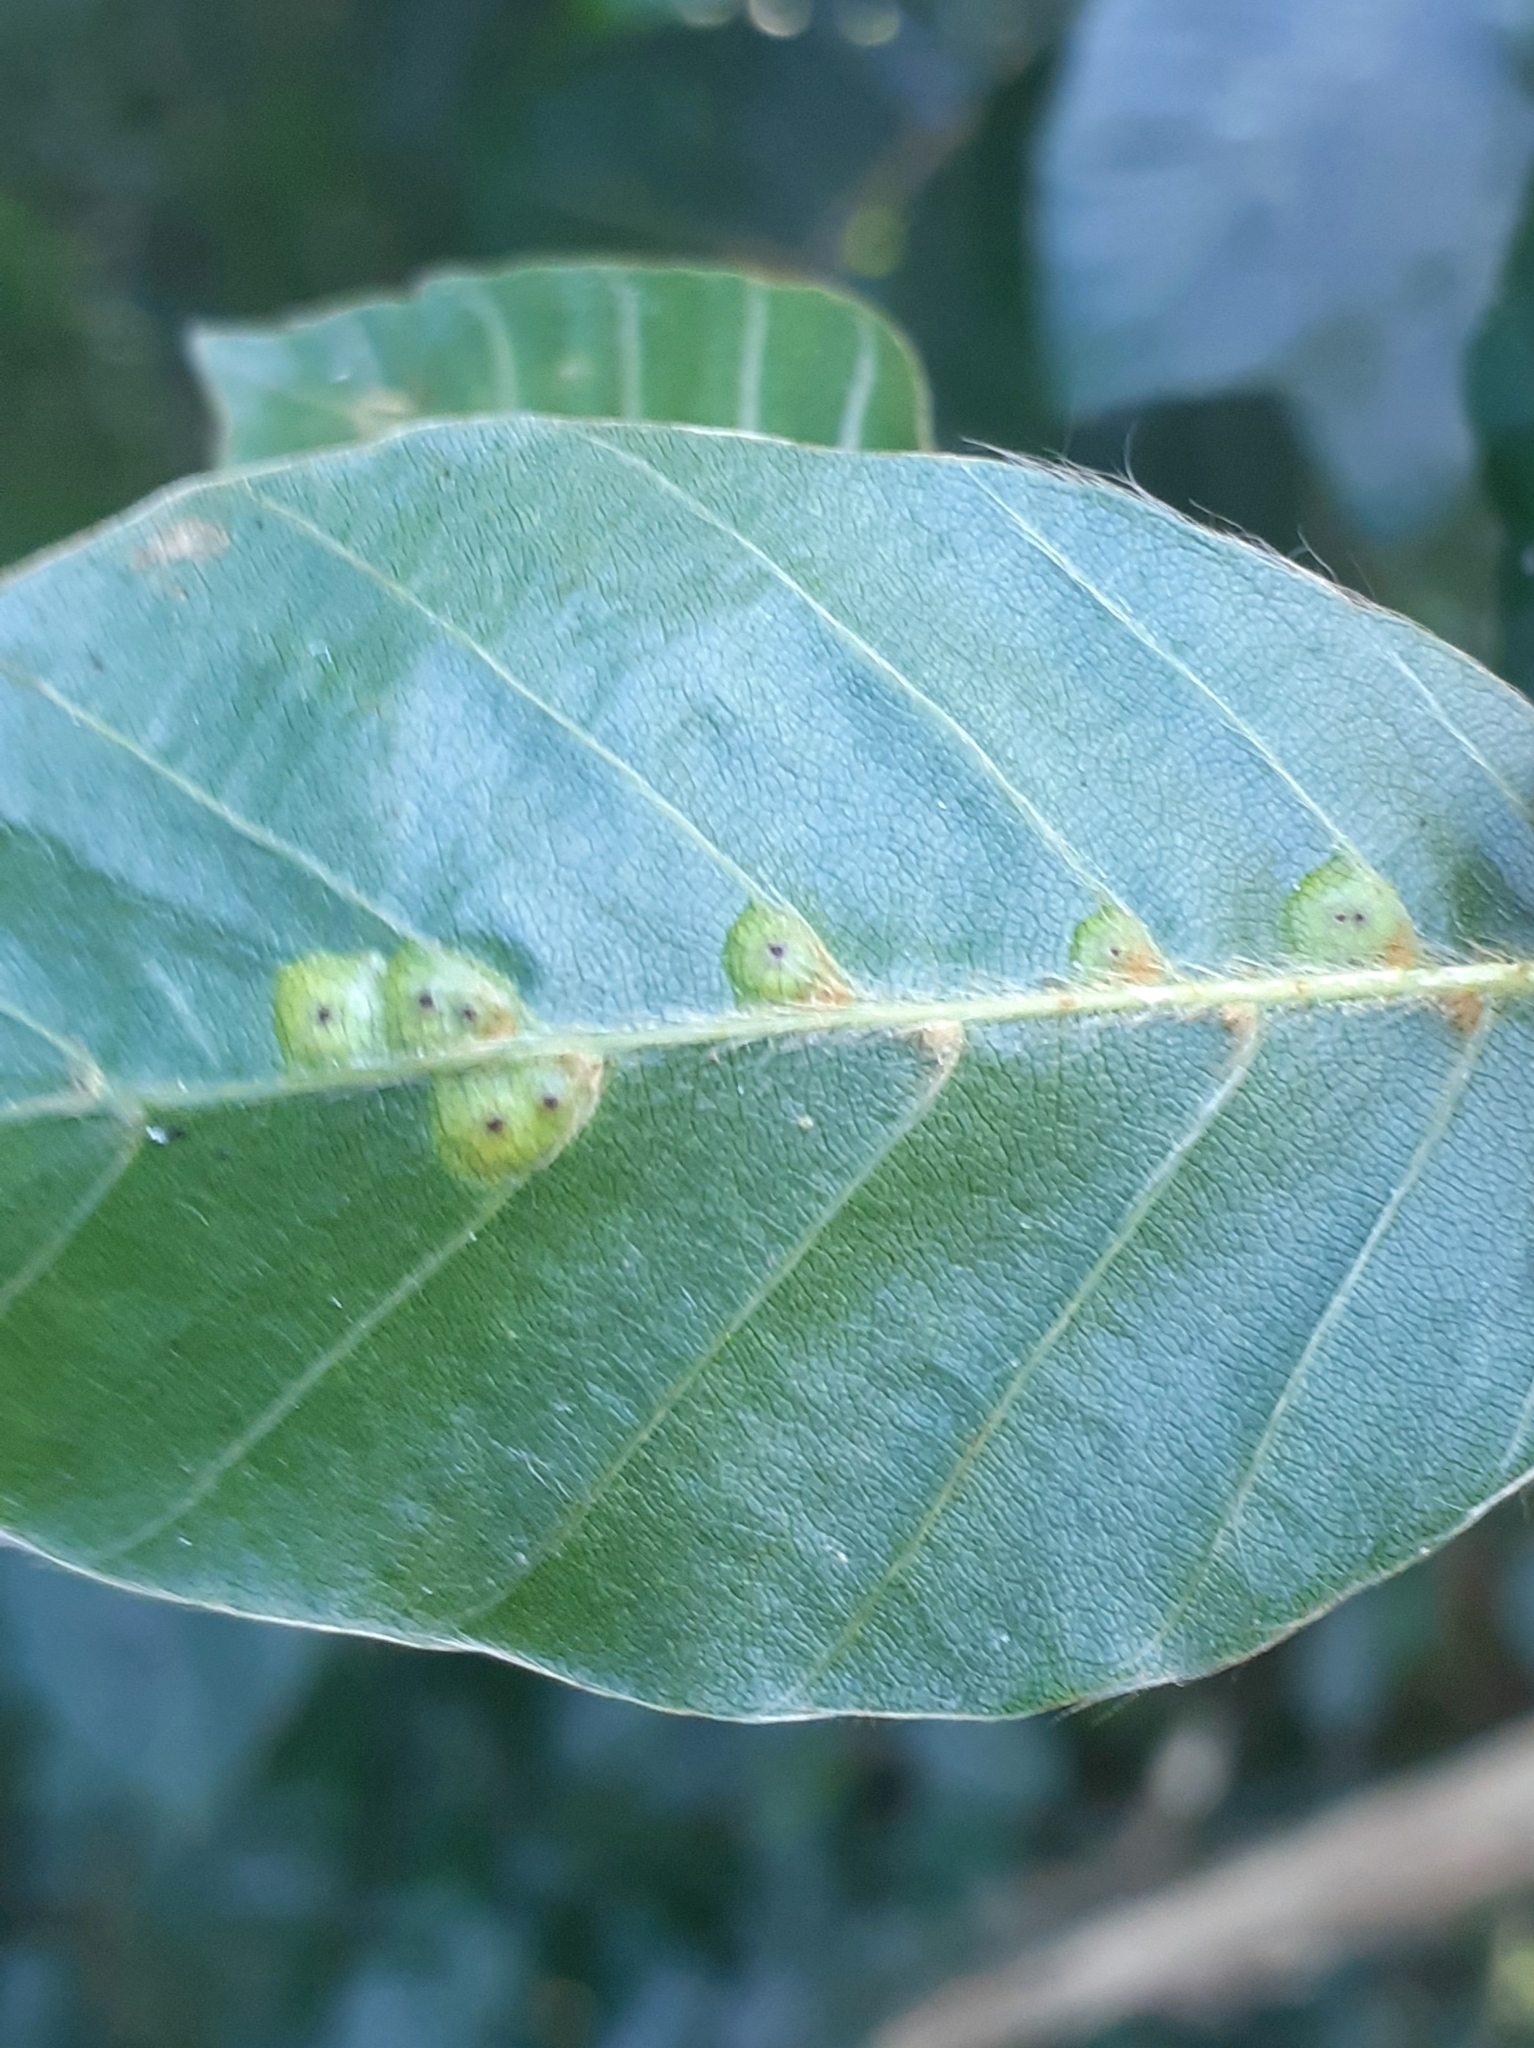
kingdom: Animalia
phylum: Arthropoda
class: Insecta
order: Diptera
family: Cecidomyiidae
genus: Hartigiola
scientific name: Hartigiola annulipes
